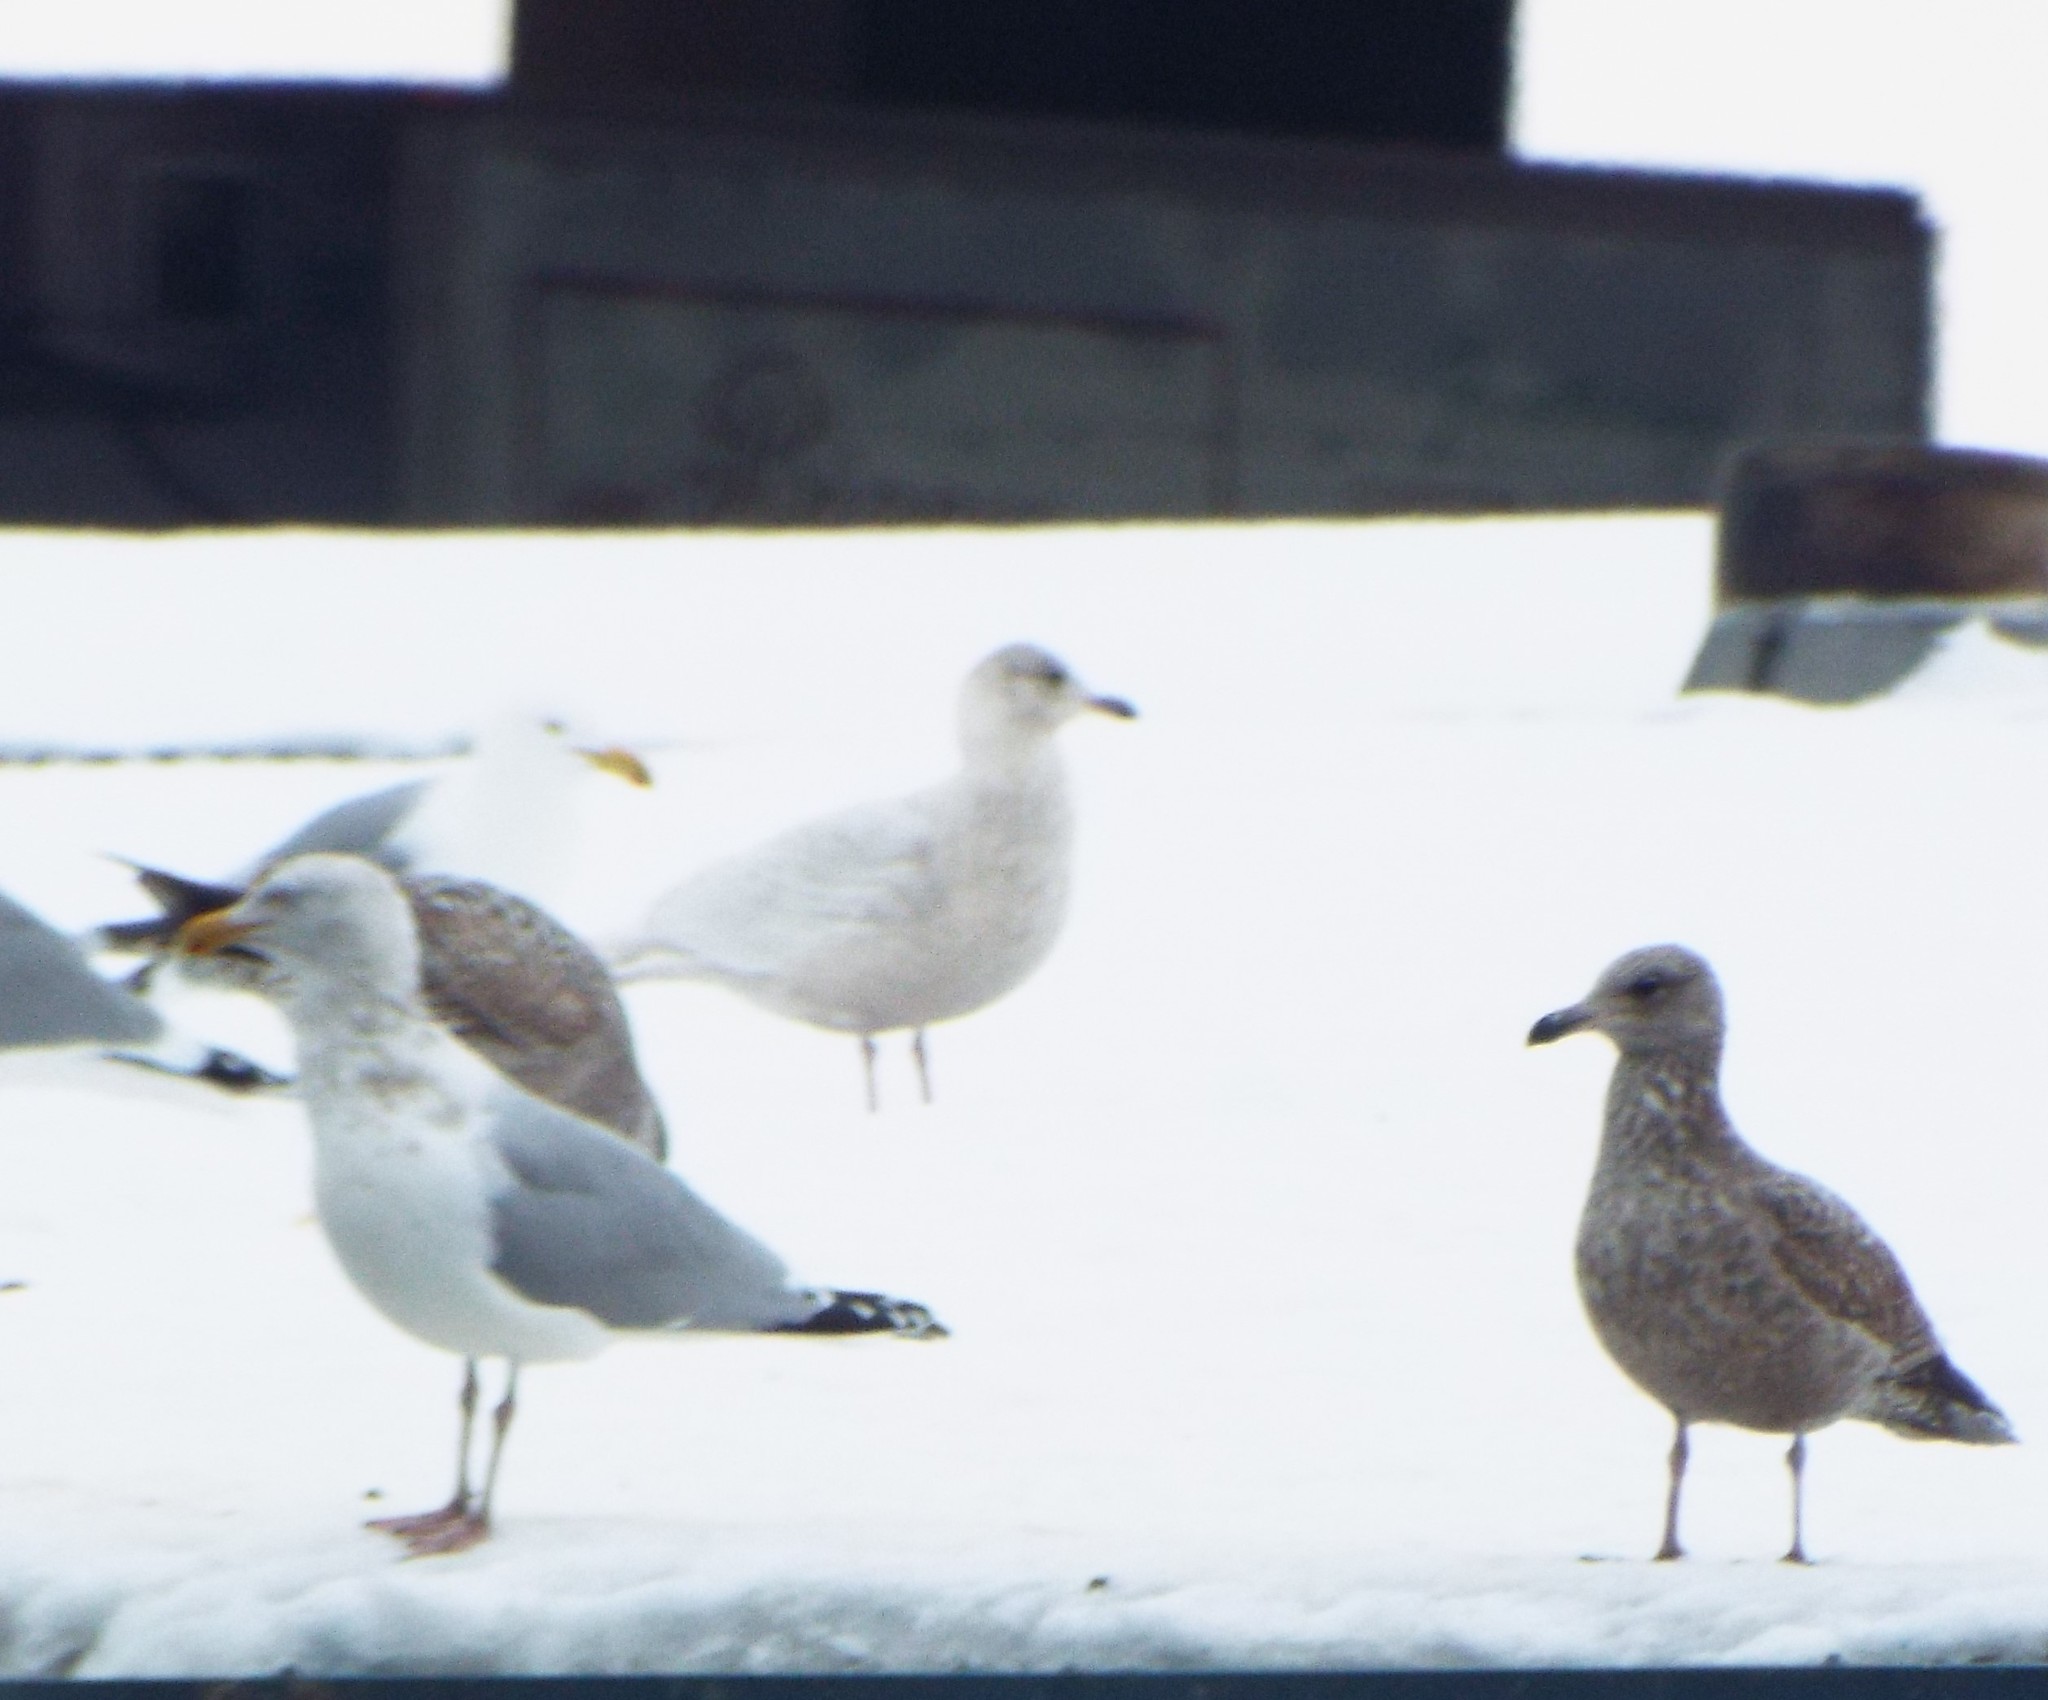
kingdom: Animalia
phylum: Chordata
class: Aves
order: Charadriiformes
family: Laridae
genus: Larus
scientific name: Larus glaucoides
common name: Iceland gull
